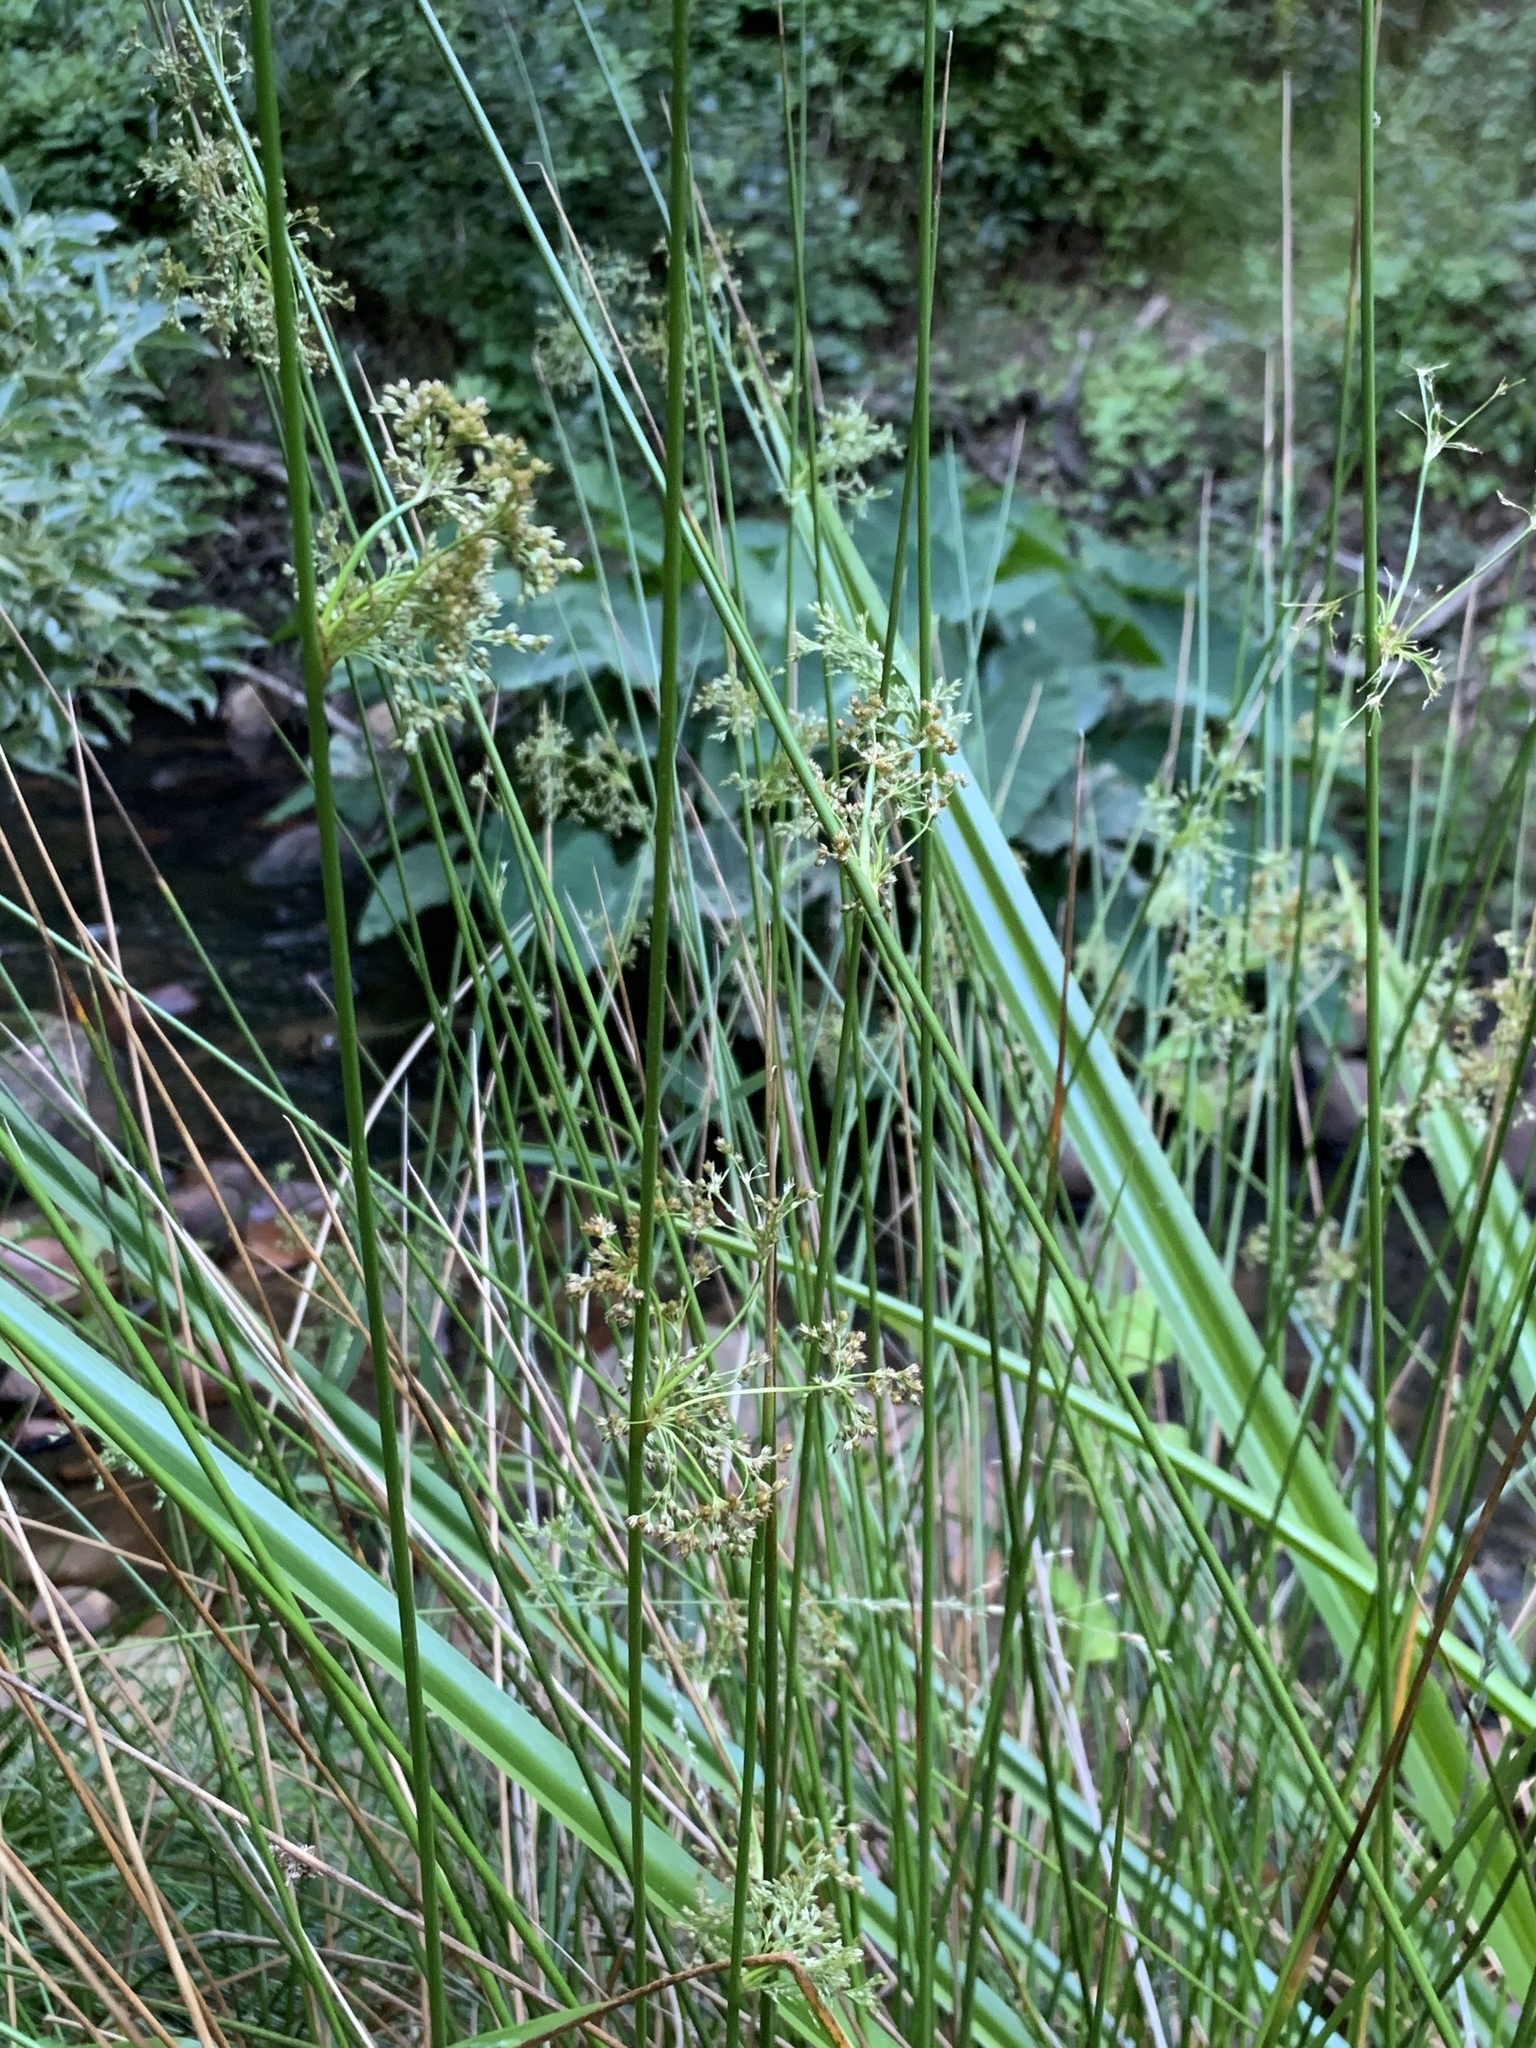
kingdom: Plantae
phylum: Tracheophyta
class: Liliopsida
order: Poales
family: Juncaceae
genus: Juncus
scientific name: Juncus effusus
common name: Soft rush
